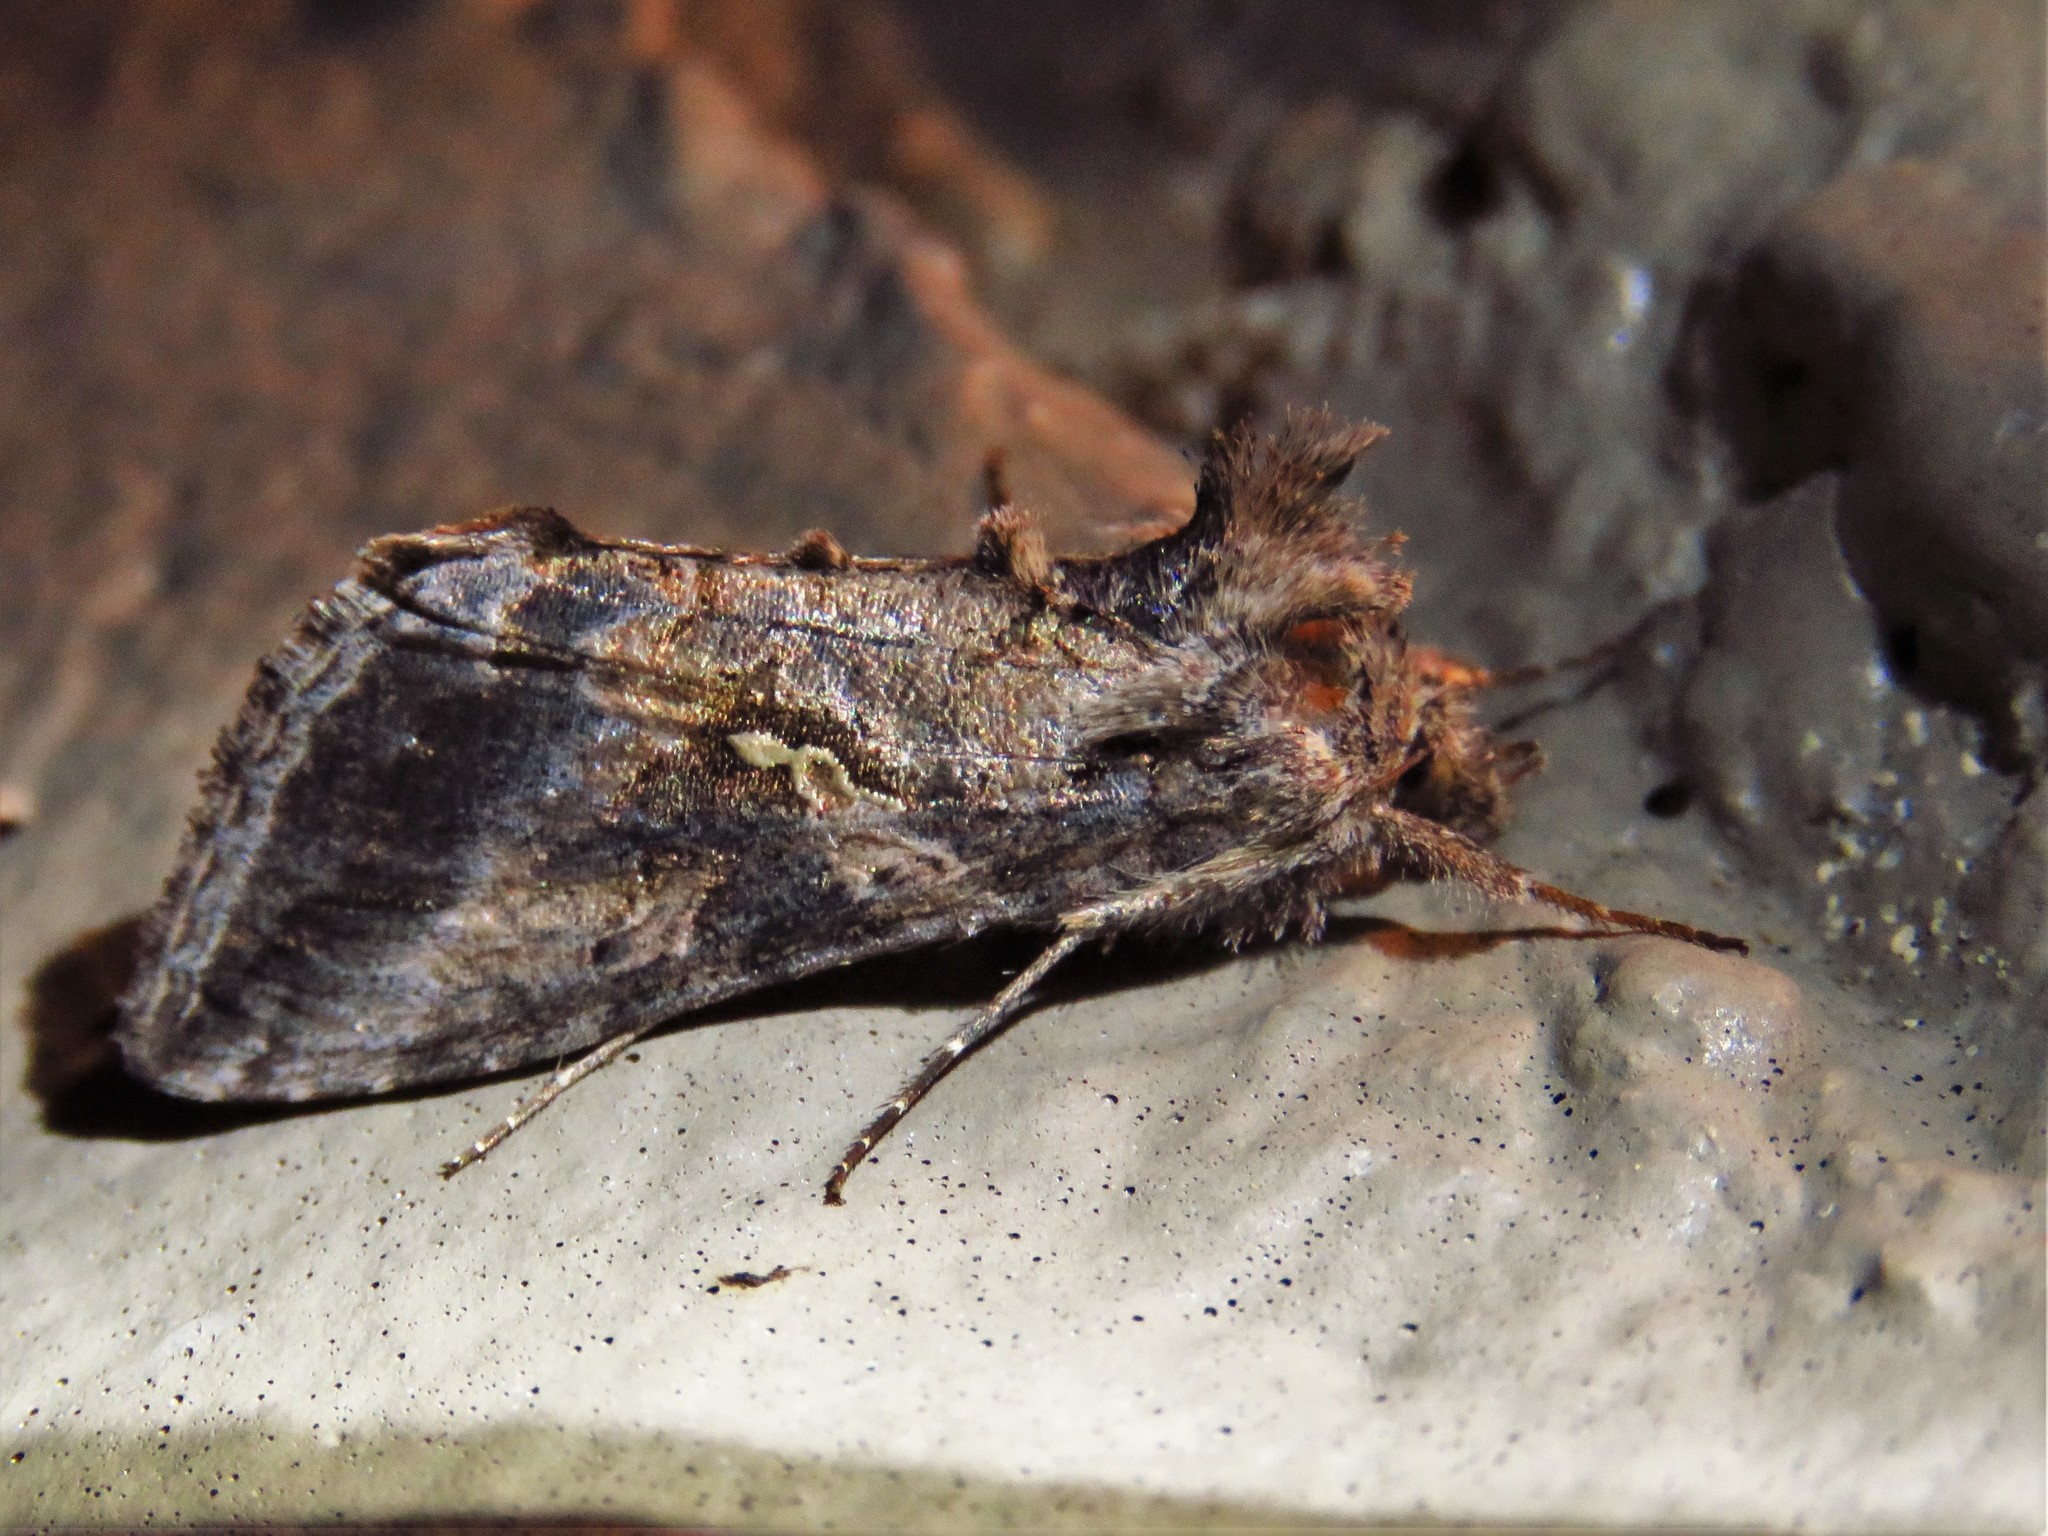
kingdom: Animalia
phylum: Arthropoda
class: Insecta
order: Lepidoptera
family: Noctuidae
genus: Rachiplusia
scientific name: Rachiplusia ou
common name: Gray looper moth
